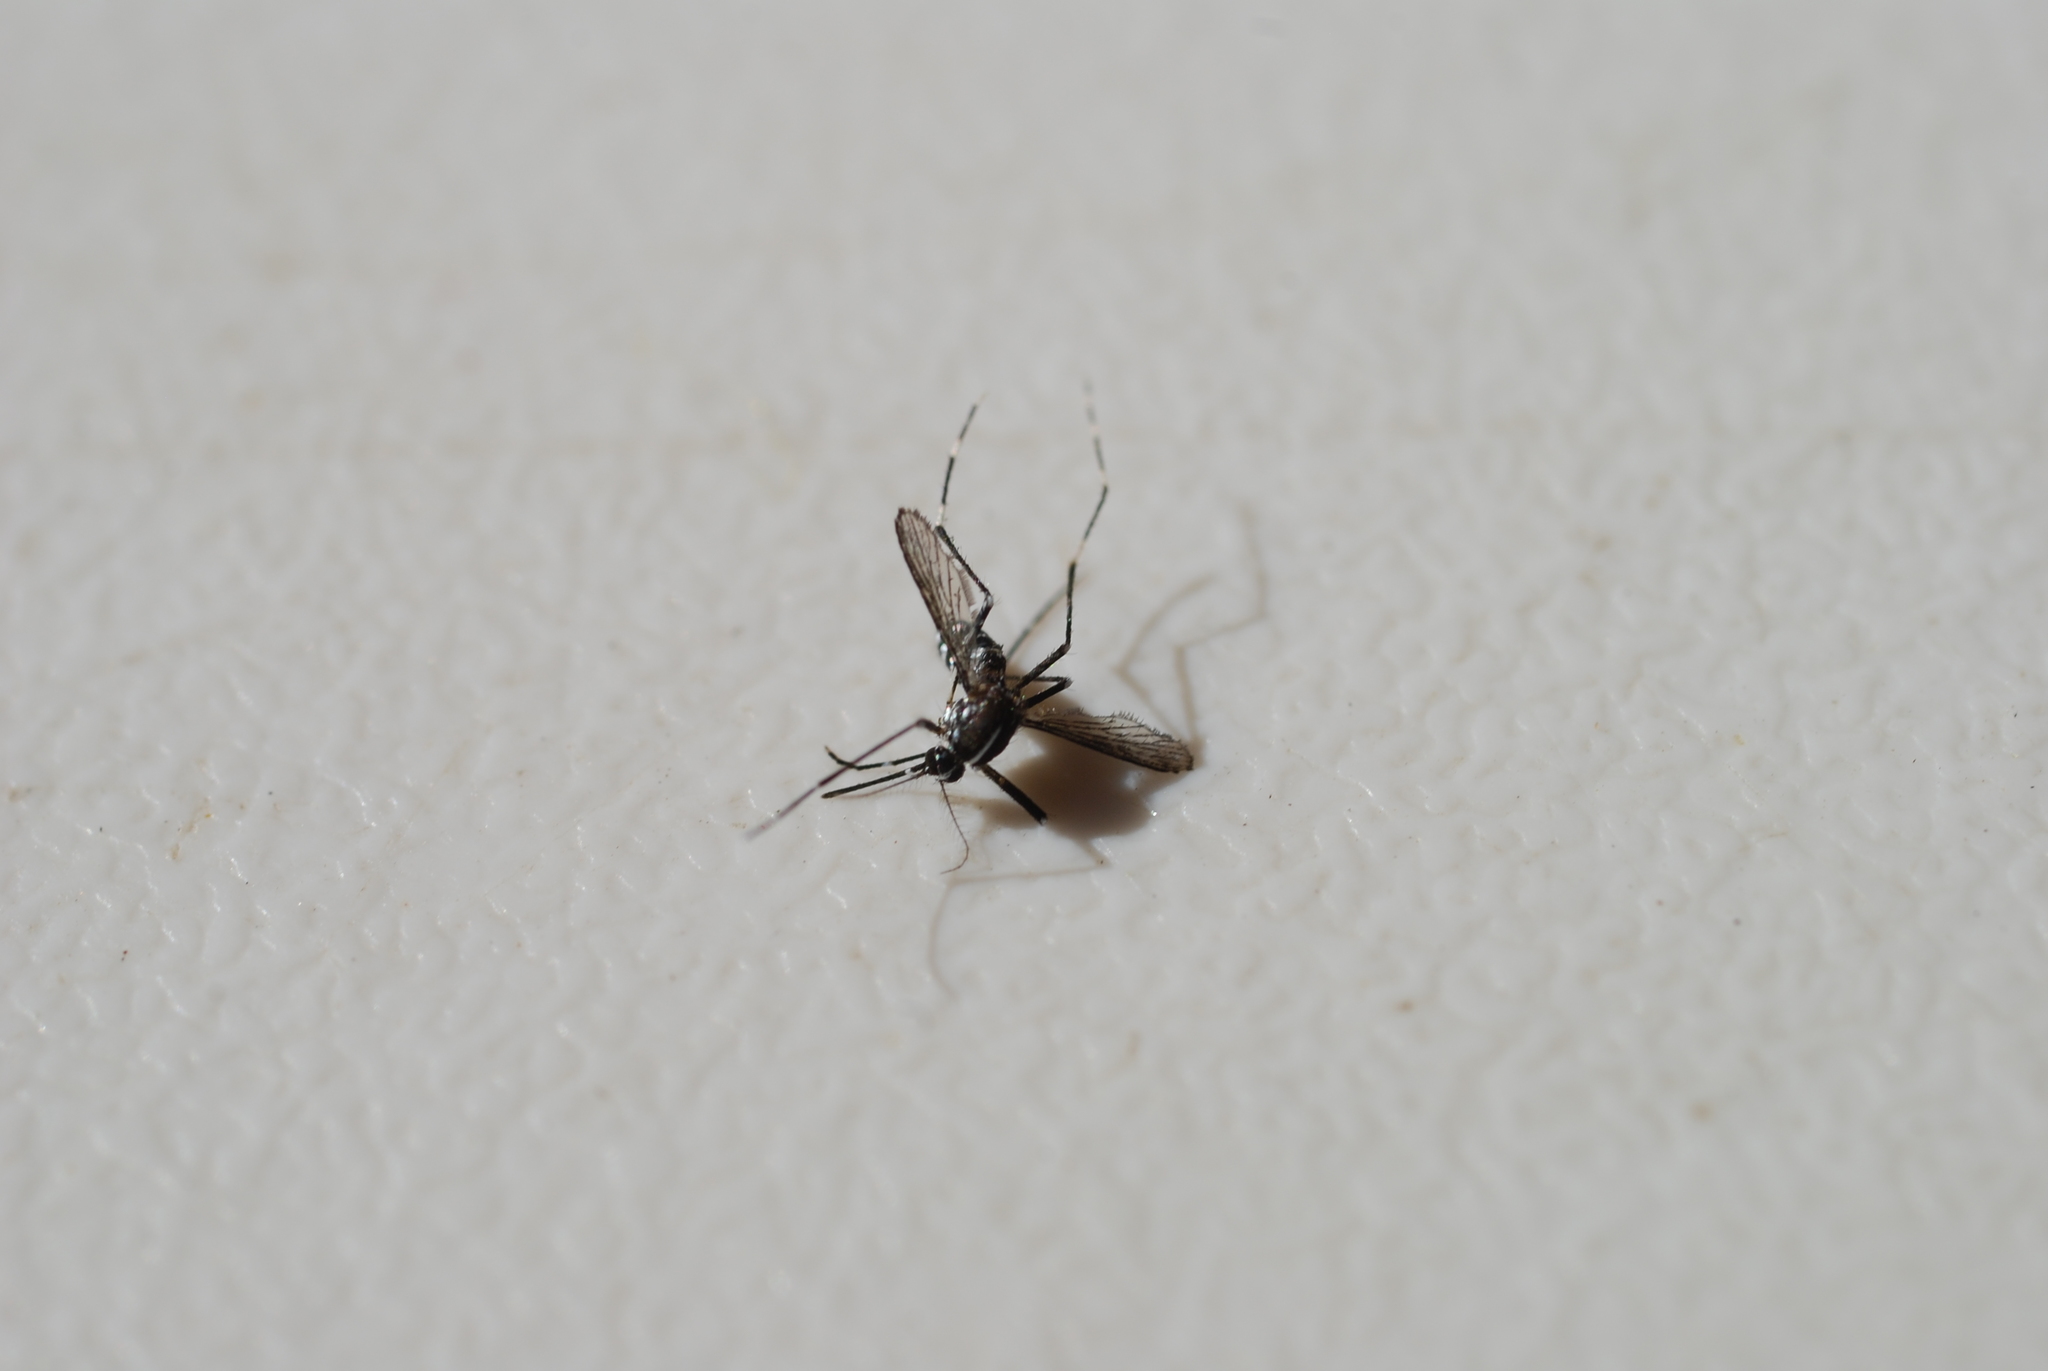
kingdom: Animalia
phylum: Arthropoda
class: Insecta
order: Diptera
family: Culicidae
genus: Aedes
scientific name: Aedes albopictus
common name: Tiger mosquito
